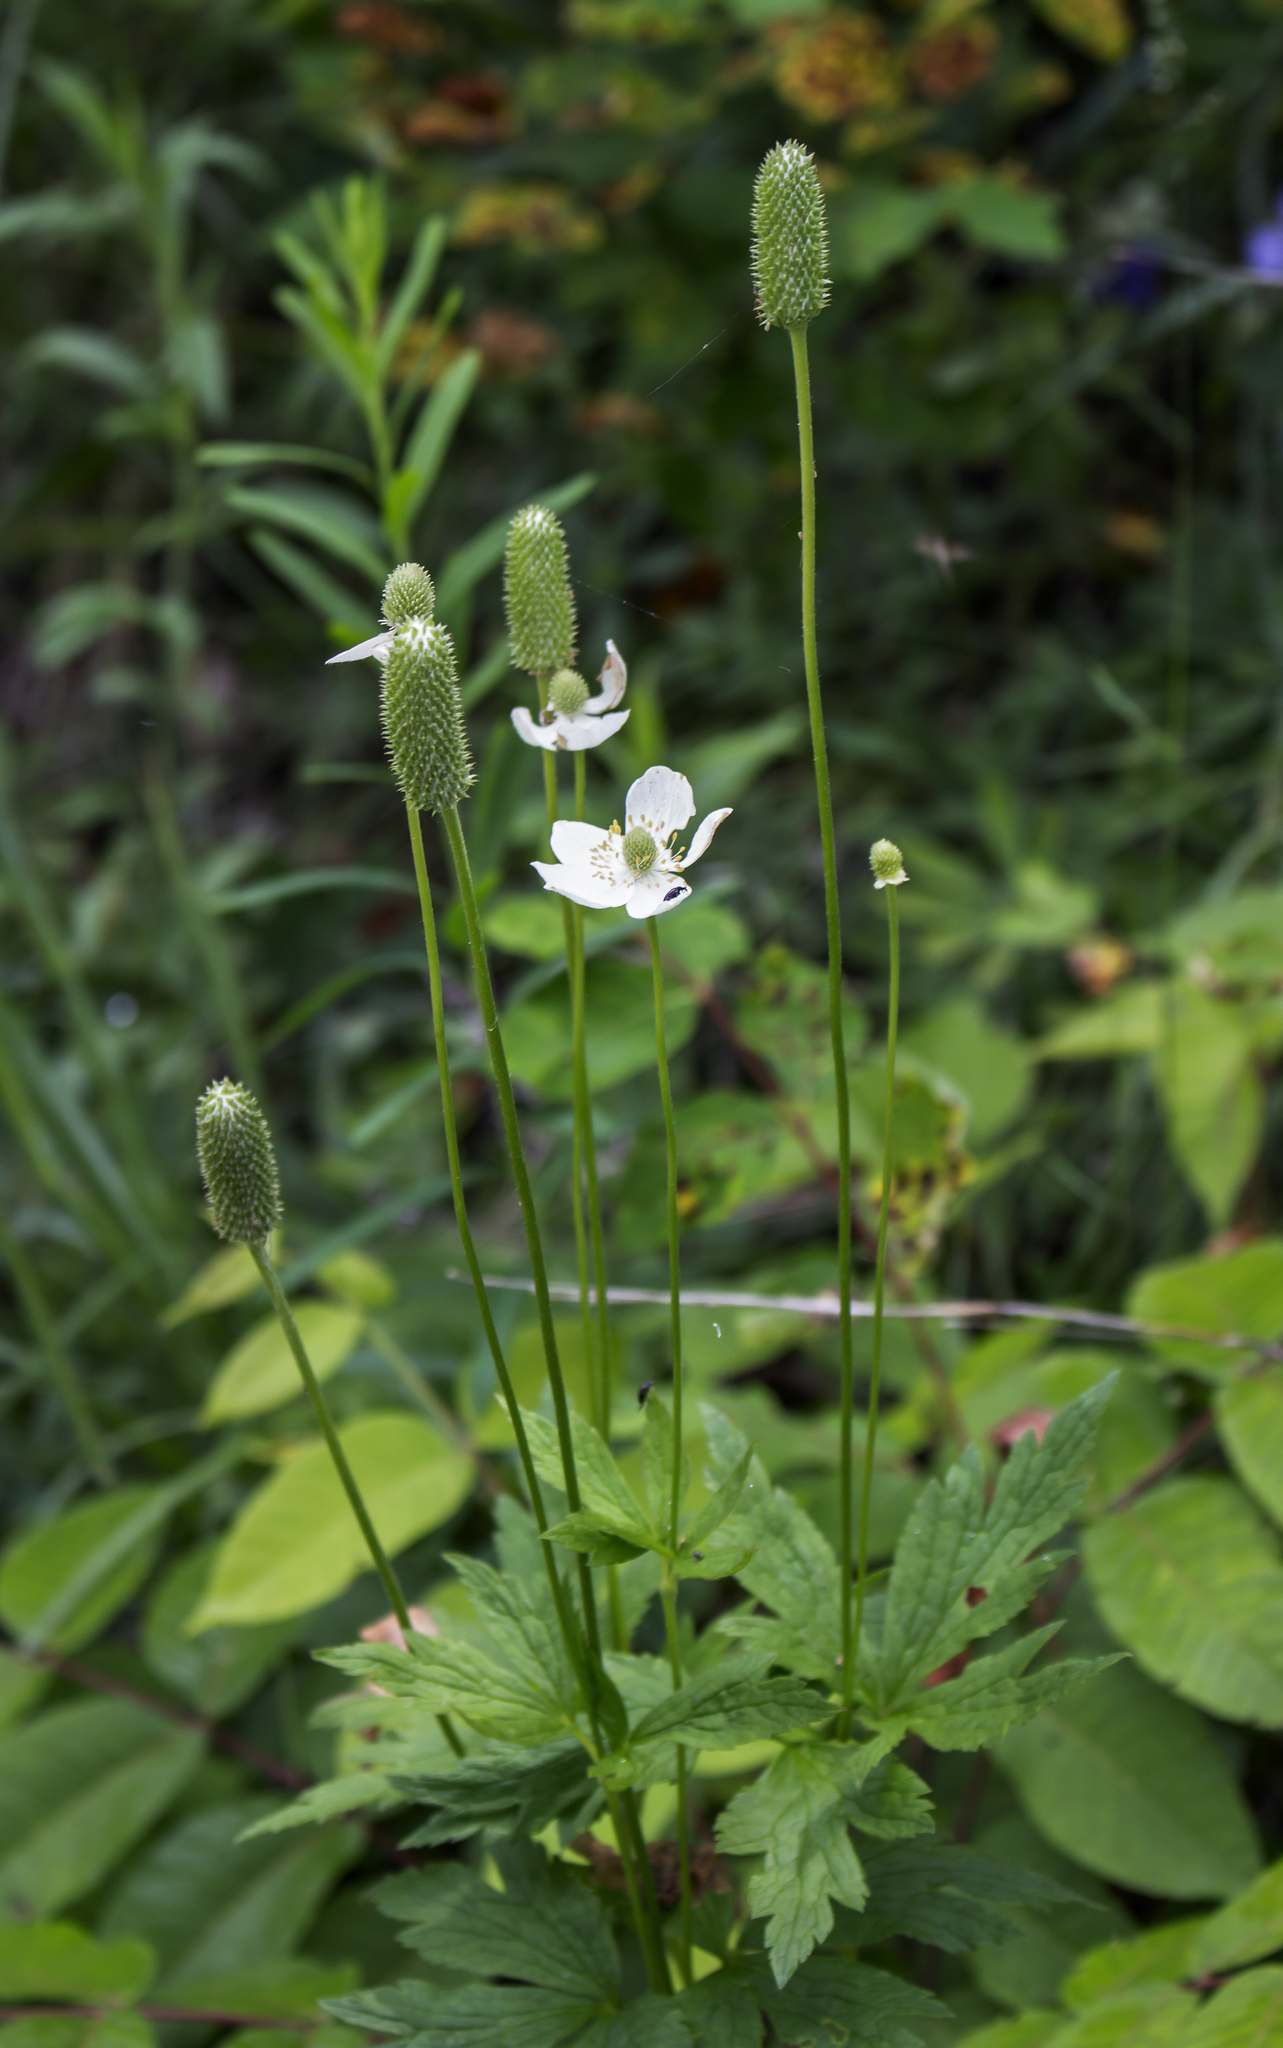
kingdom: Plantae
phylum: Tracheophyta
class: Magnoliopsida
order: Ranunculales
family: Ranunculaceae
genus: Anemone
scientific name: Anemone virginiana
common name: Tall anemone
